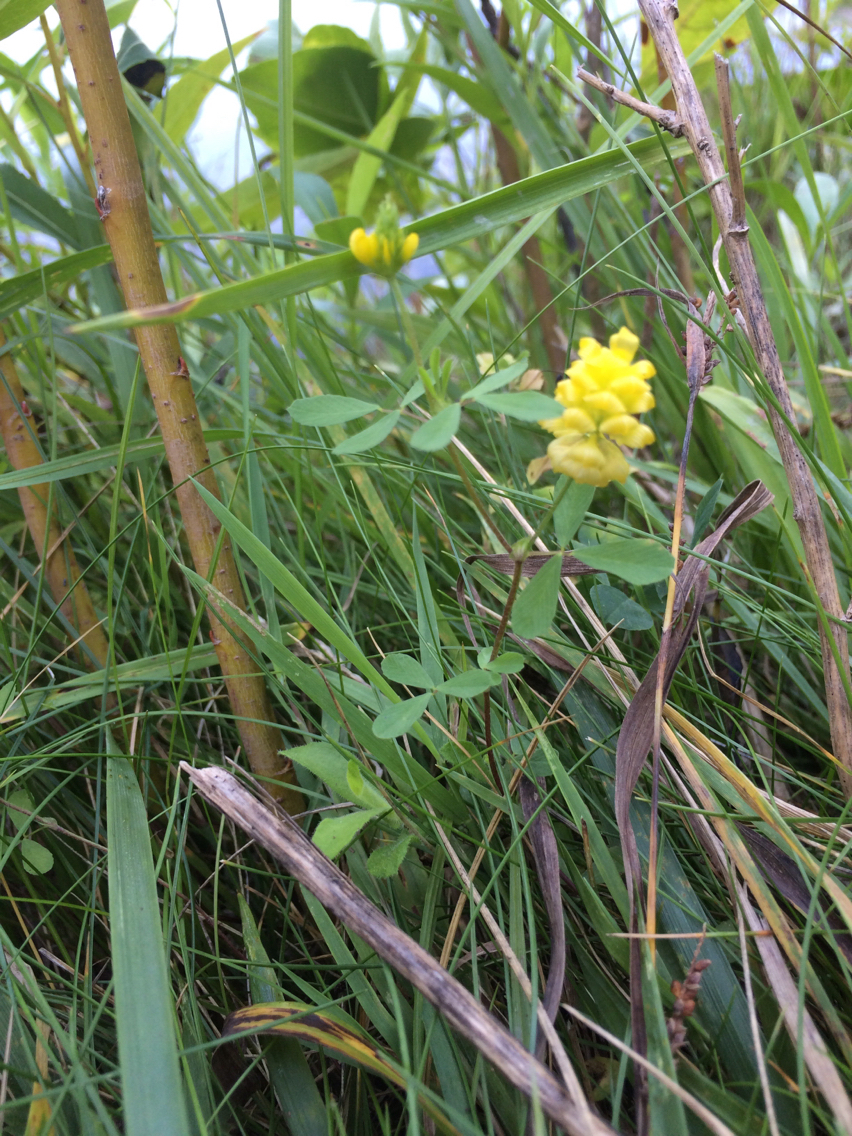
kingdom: Plantae
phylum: Tracheophyta
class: Magnoliopsida
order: Fabales
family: Fabaceae
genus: Trifolium
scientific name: Trifolium campestre
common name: Field clover
